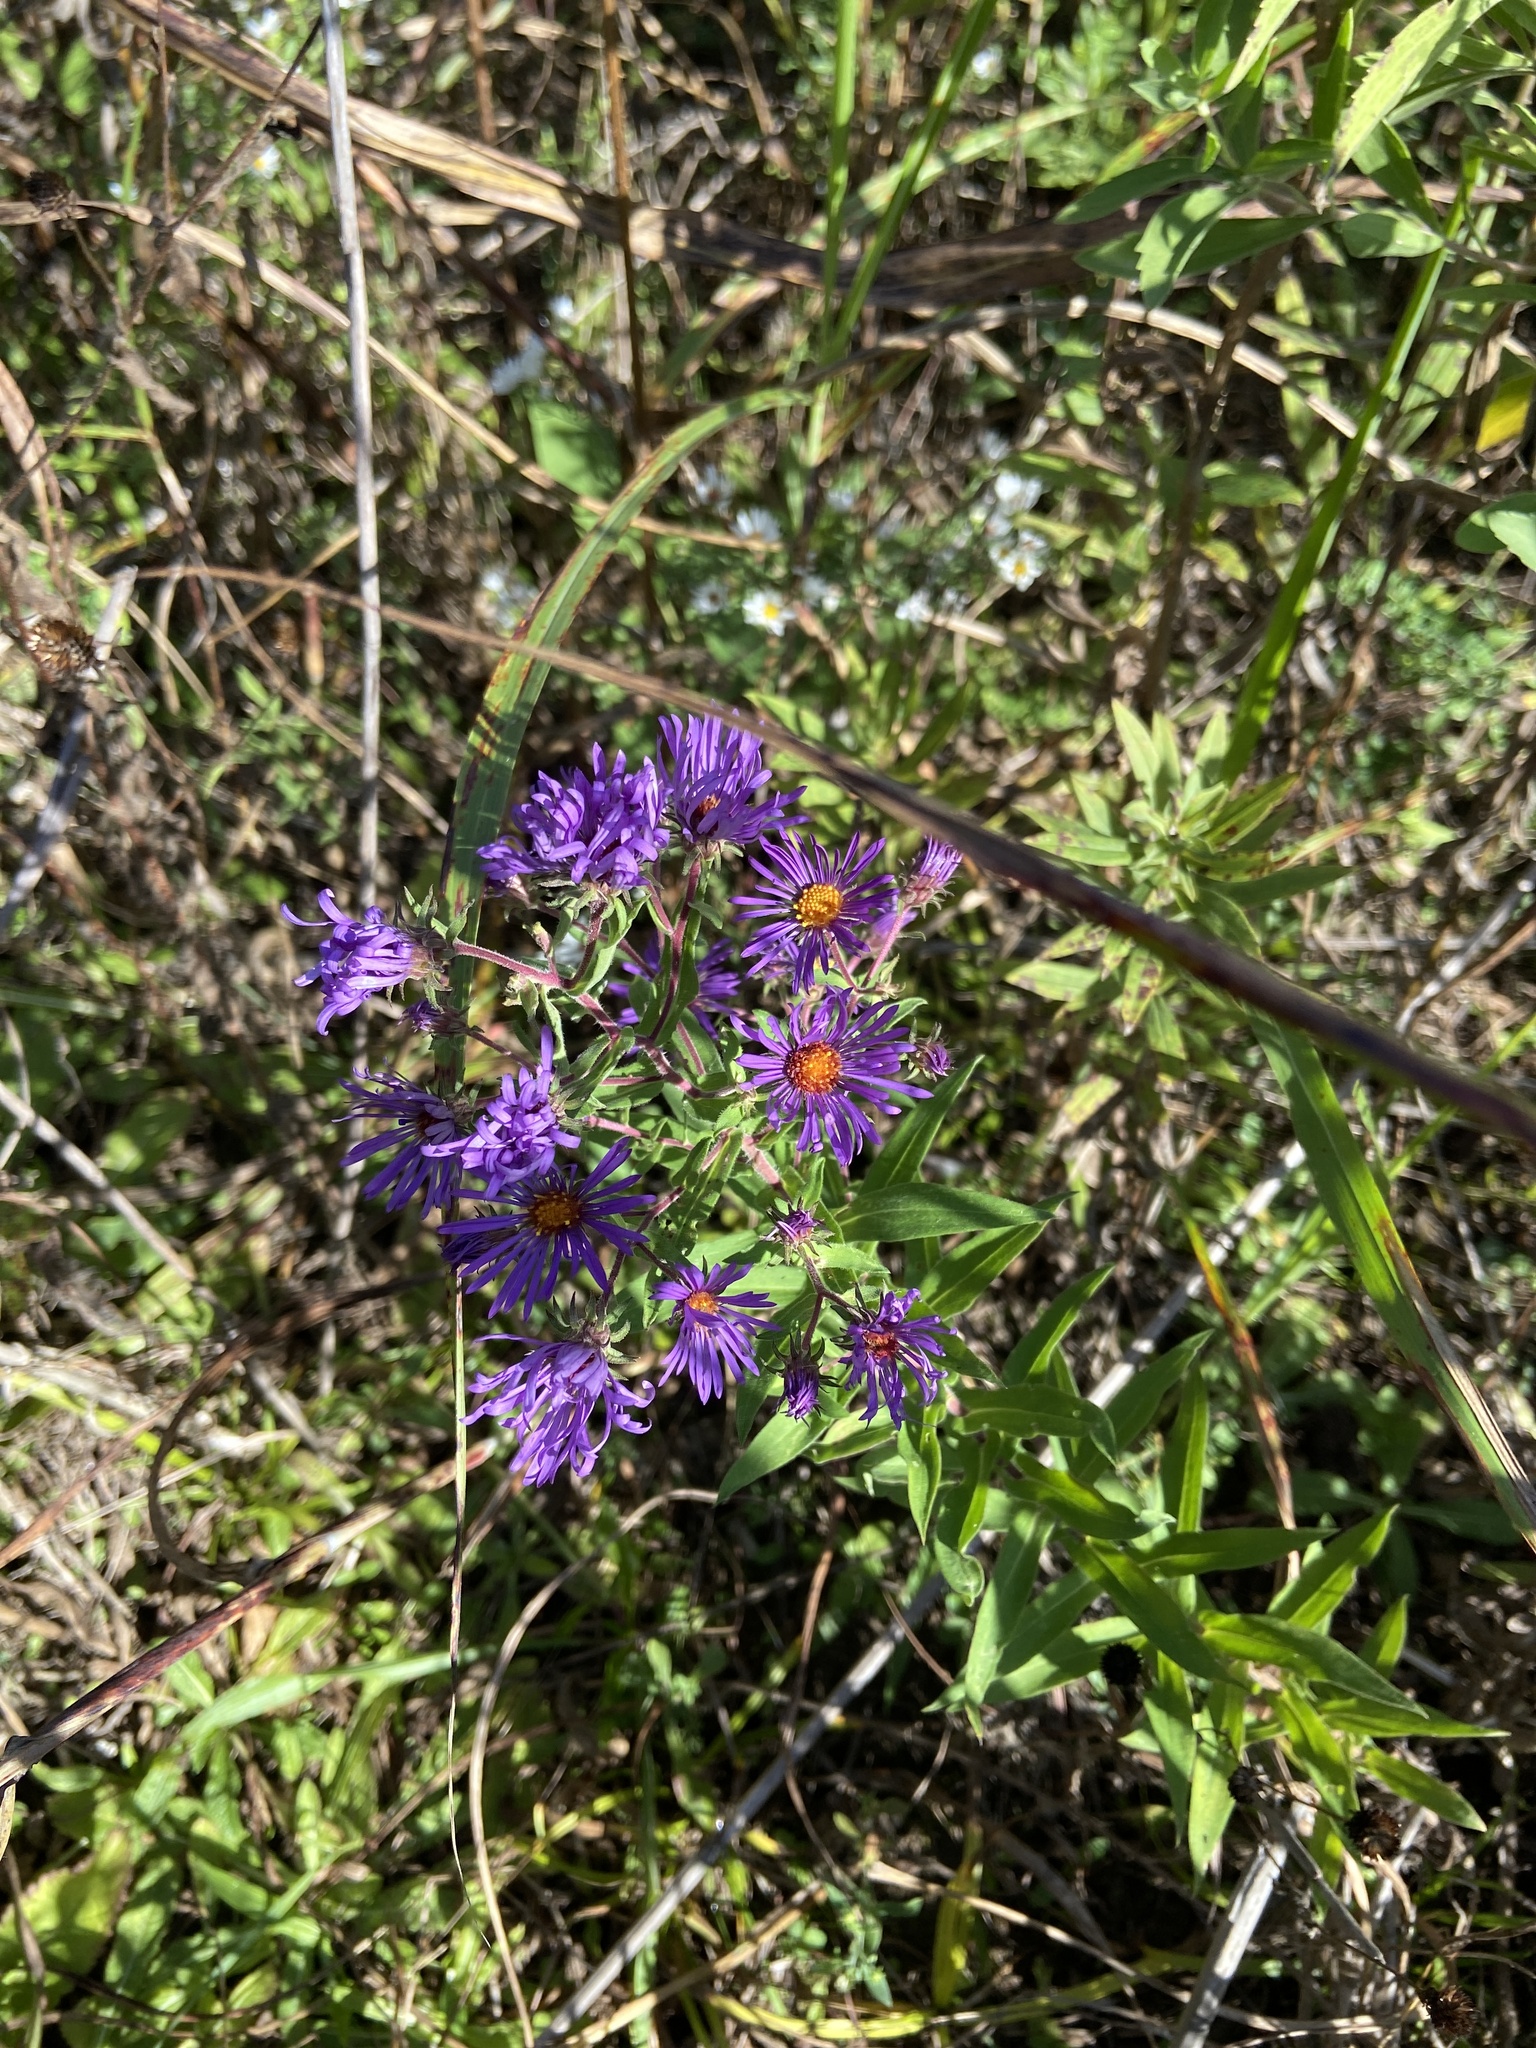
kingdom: Plantae
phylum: Tracheophyta
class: Magnoliopsida
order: Asterales
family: Asteraceae
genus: Symphyotrichum
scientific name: Symphyotrichum novae-angliae
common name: Michaelmas daisy
